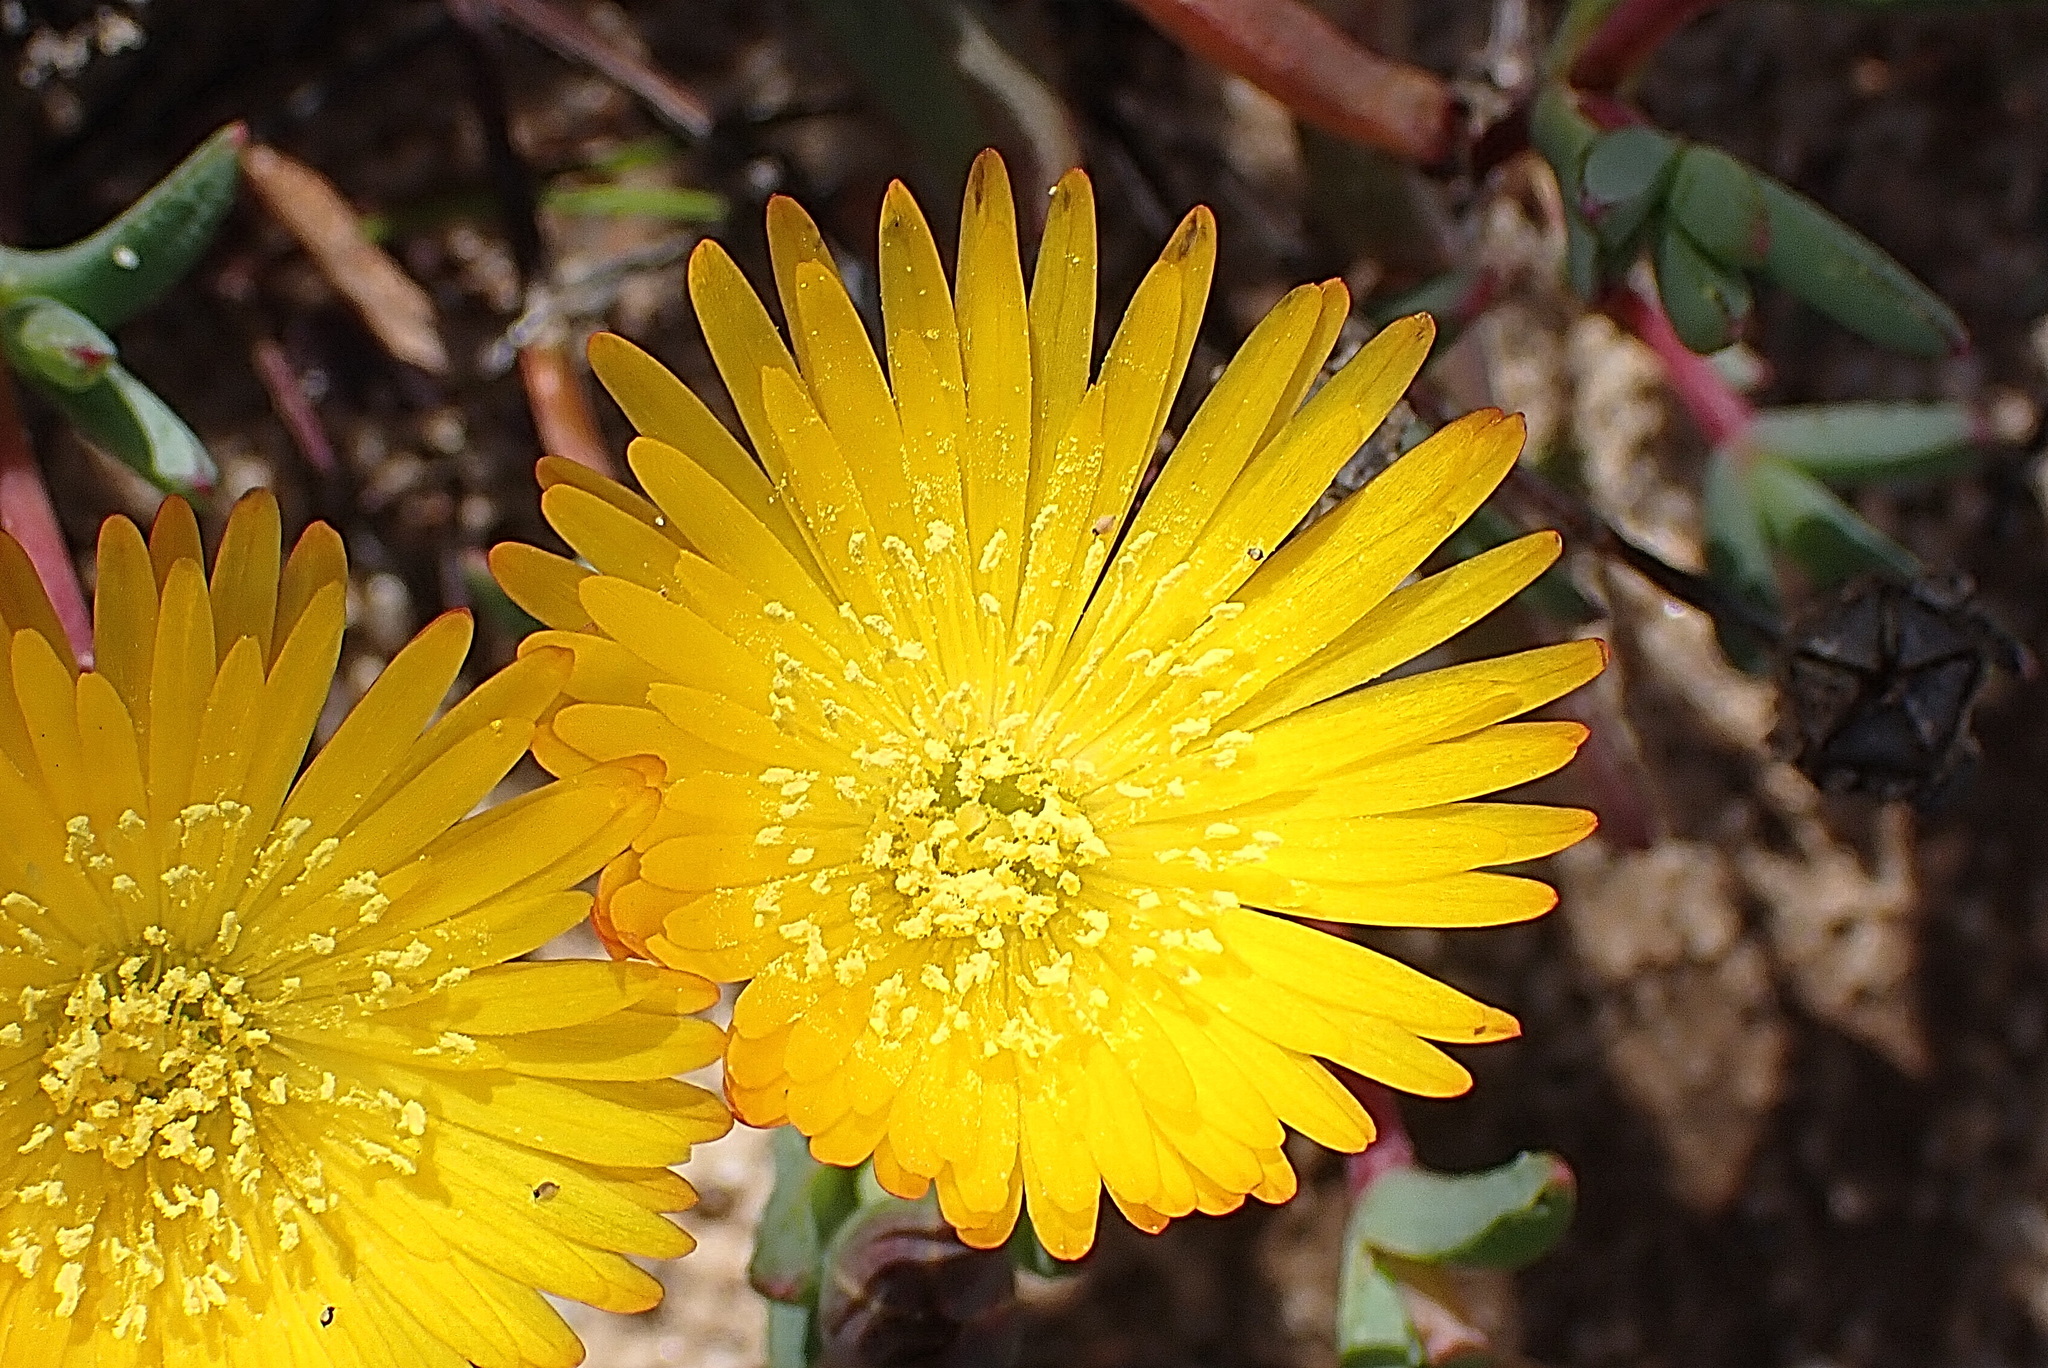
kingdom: Plantae
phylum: Tracheophyta
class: Magnoliopsida
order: Caryophyllales
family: Aizoaceae
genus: Lampranthus
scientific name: Lampranthus glaucus
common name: Noonflower
